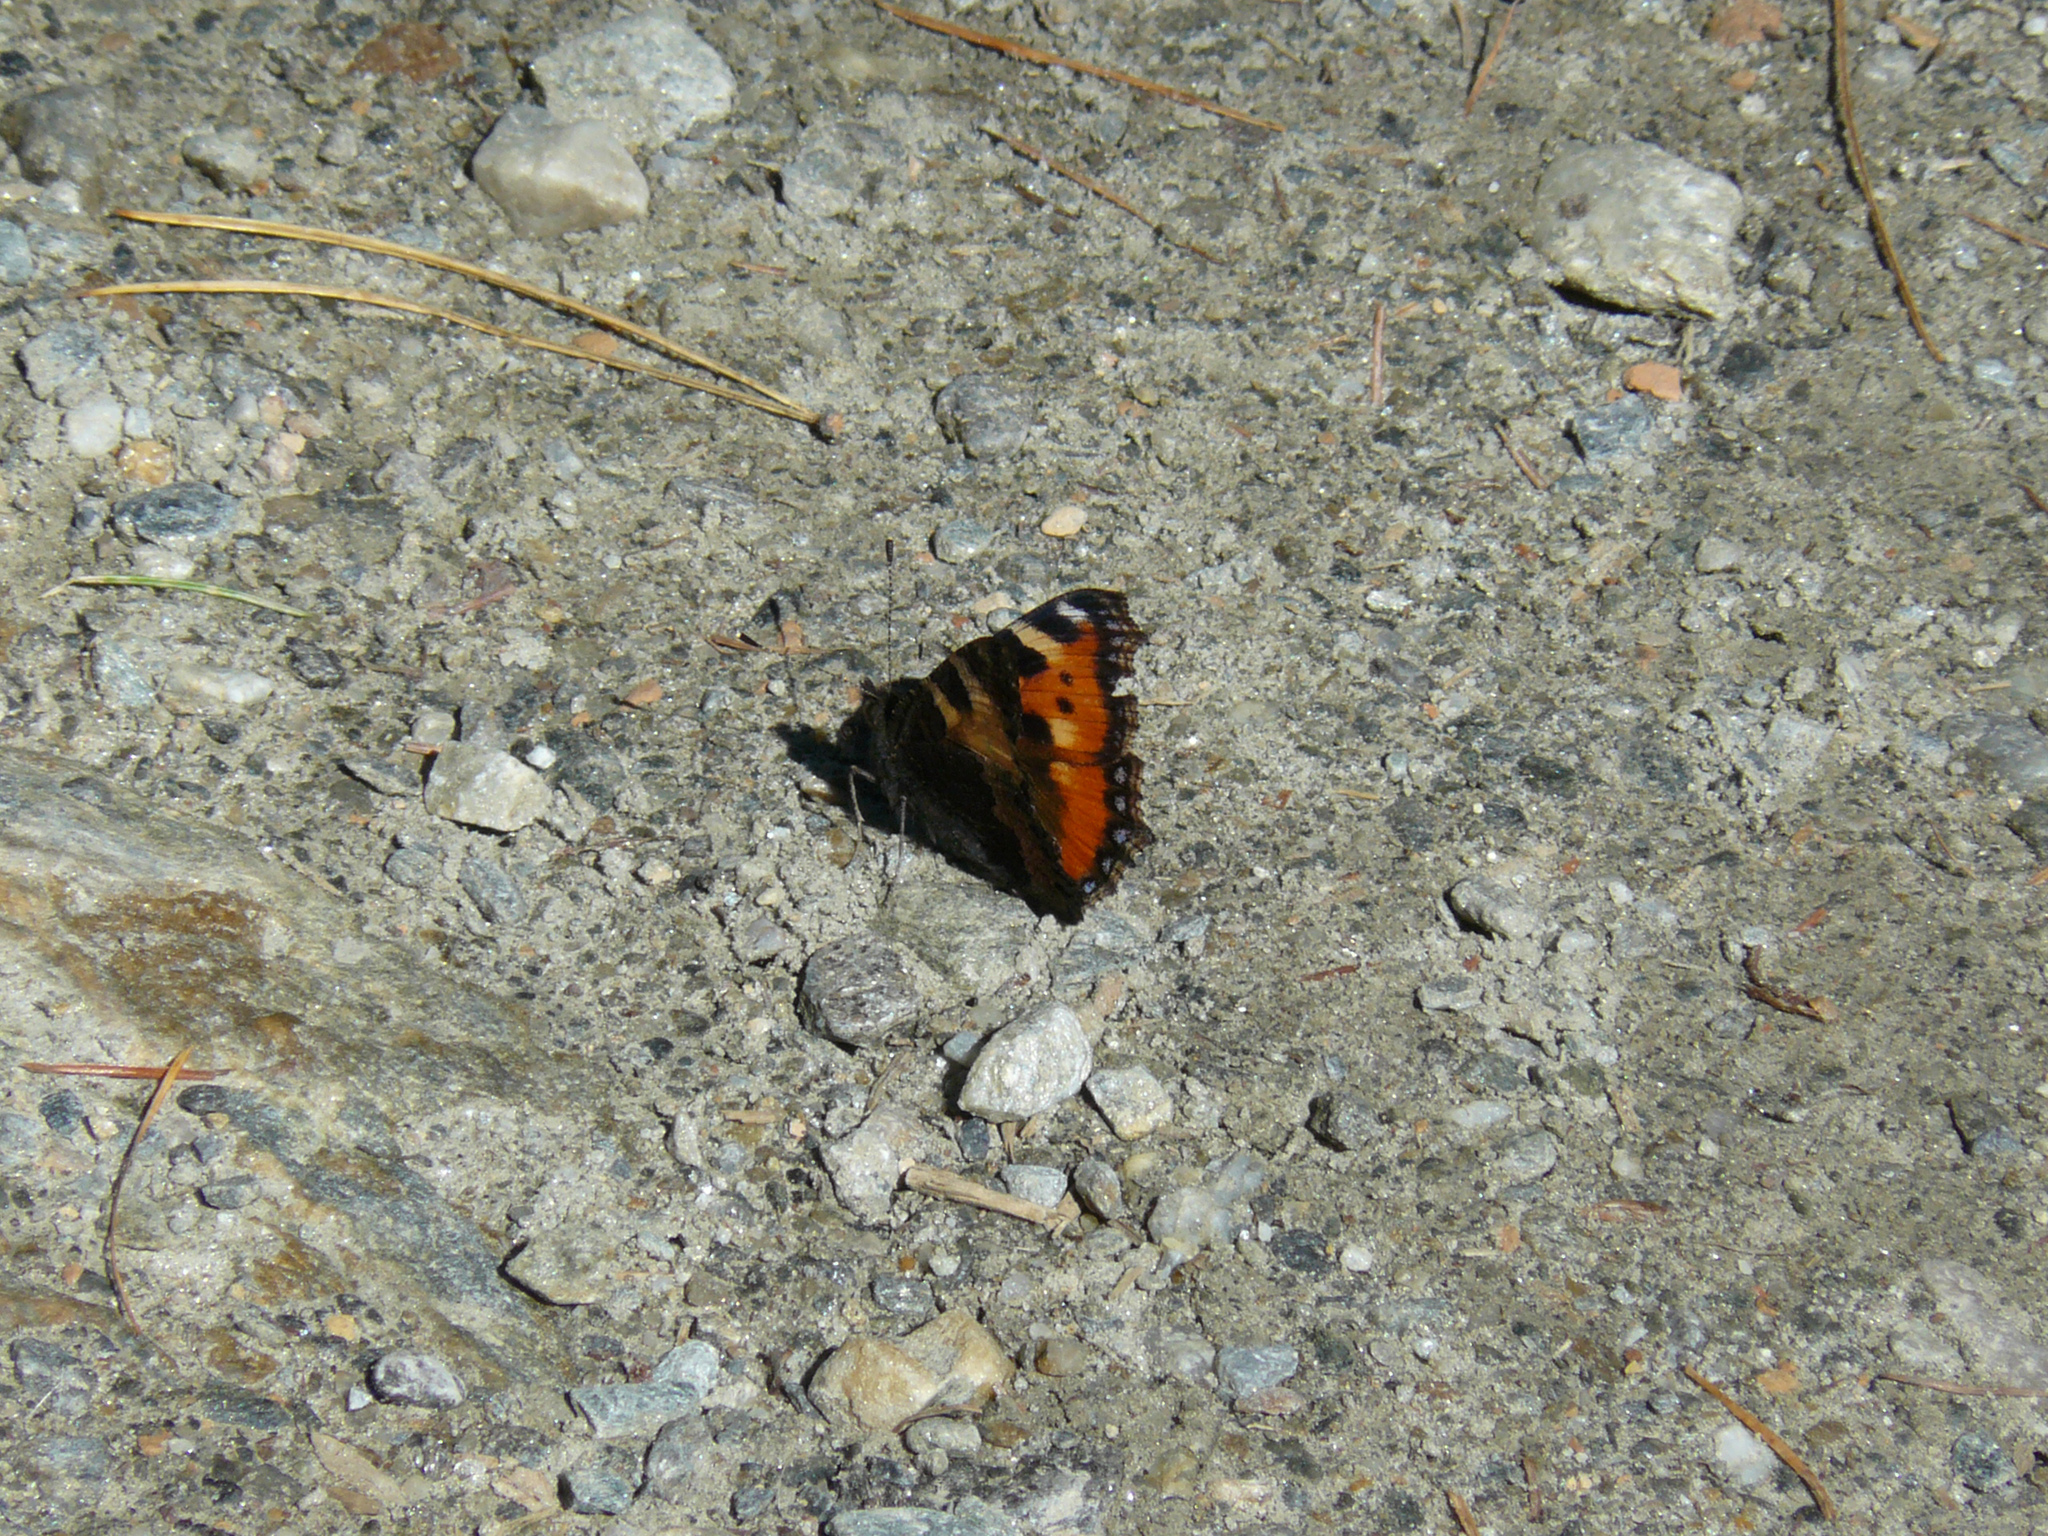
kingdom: Animalia
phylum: Arthropoda
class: Insecta
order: Lepidoptera
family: Nymphalidae
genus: Aglais
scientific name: Aglais urticae
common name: Small tortoiseshell
